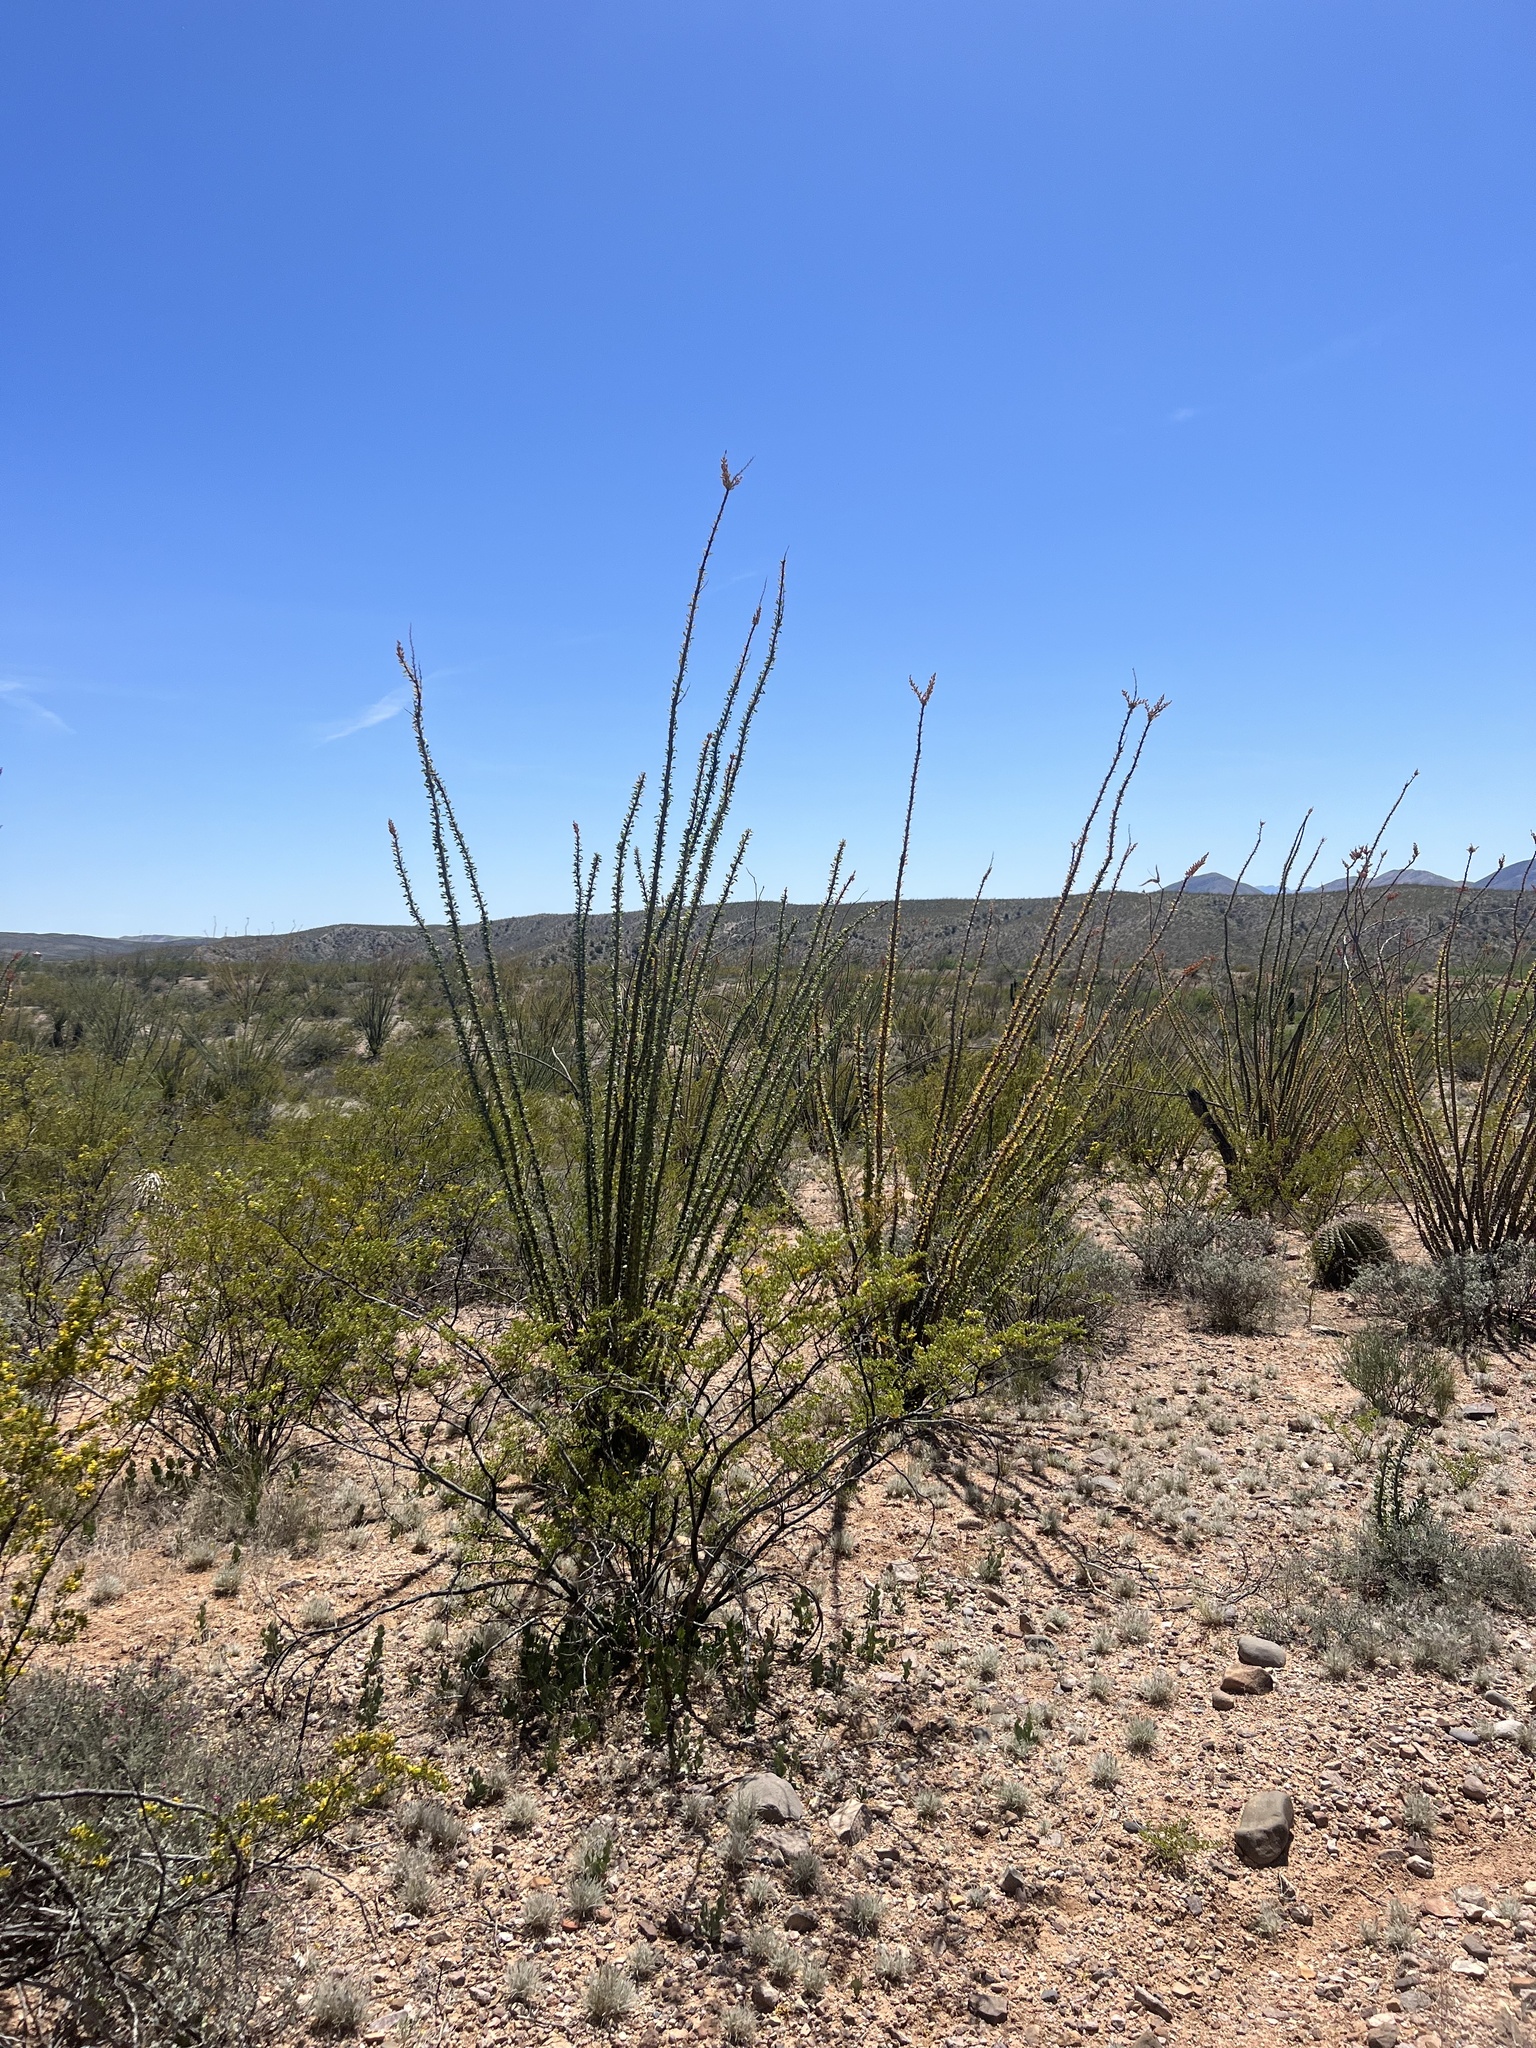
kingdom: Plantae
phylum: Tracheophyta
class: Magnoliopsida
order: Ericales
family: Fouquieriaceae
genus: Fouquieria
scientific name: Fouquieria splendens
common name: Vine-cactus
